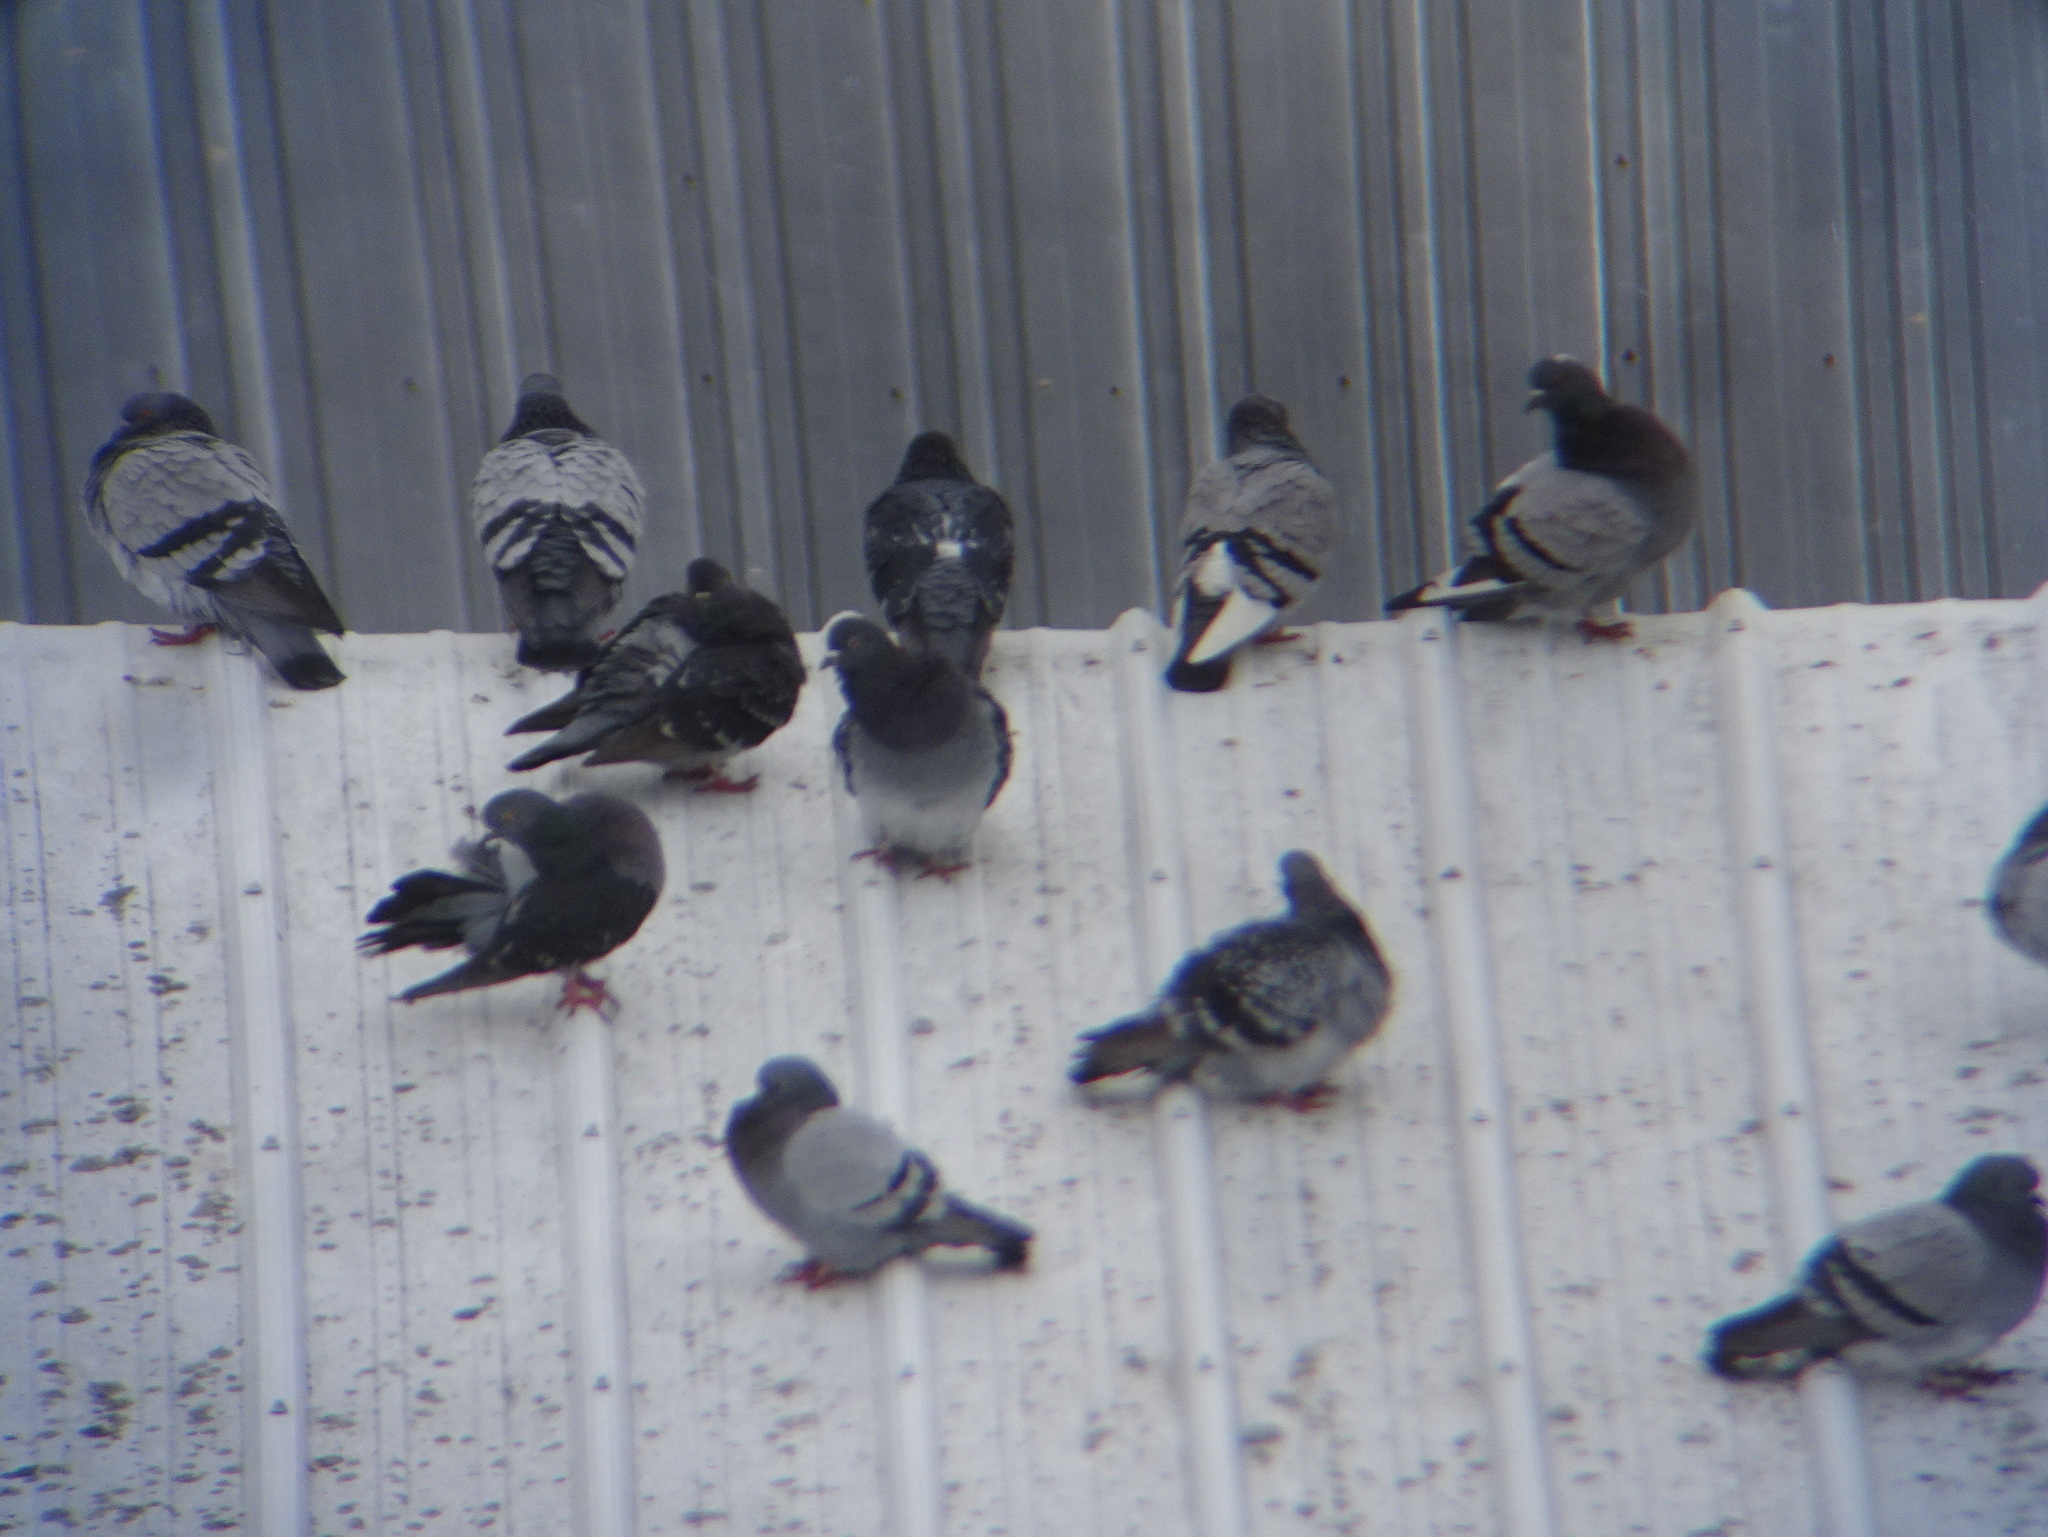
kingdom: Animalia
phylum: Chordata
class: Aves
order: Columbiformes
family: Columbidae
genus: Columba
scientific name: Columba livia
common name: Rock pigeon
